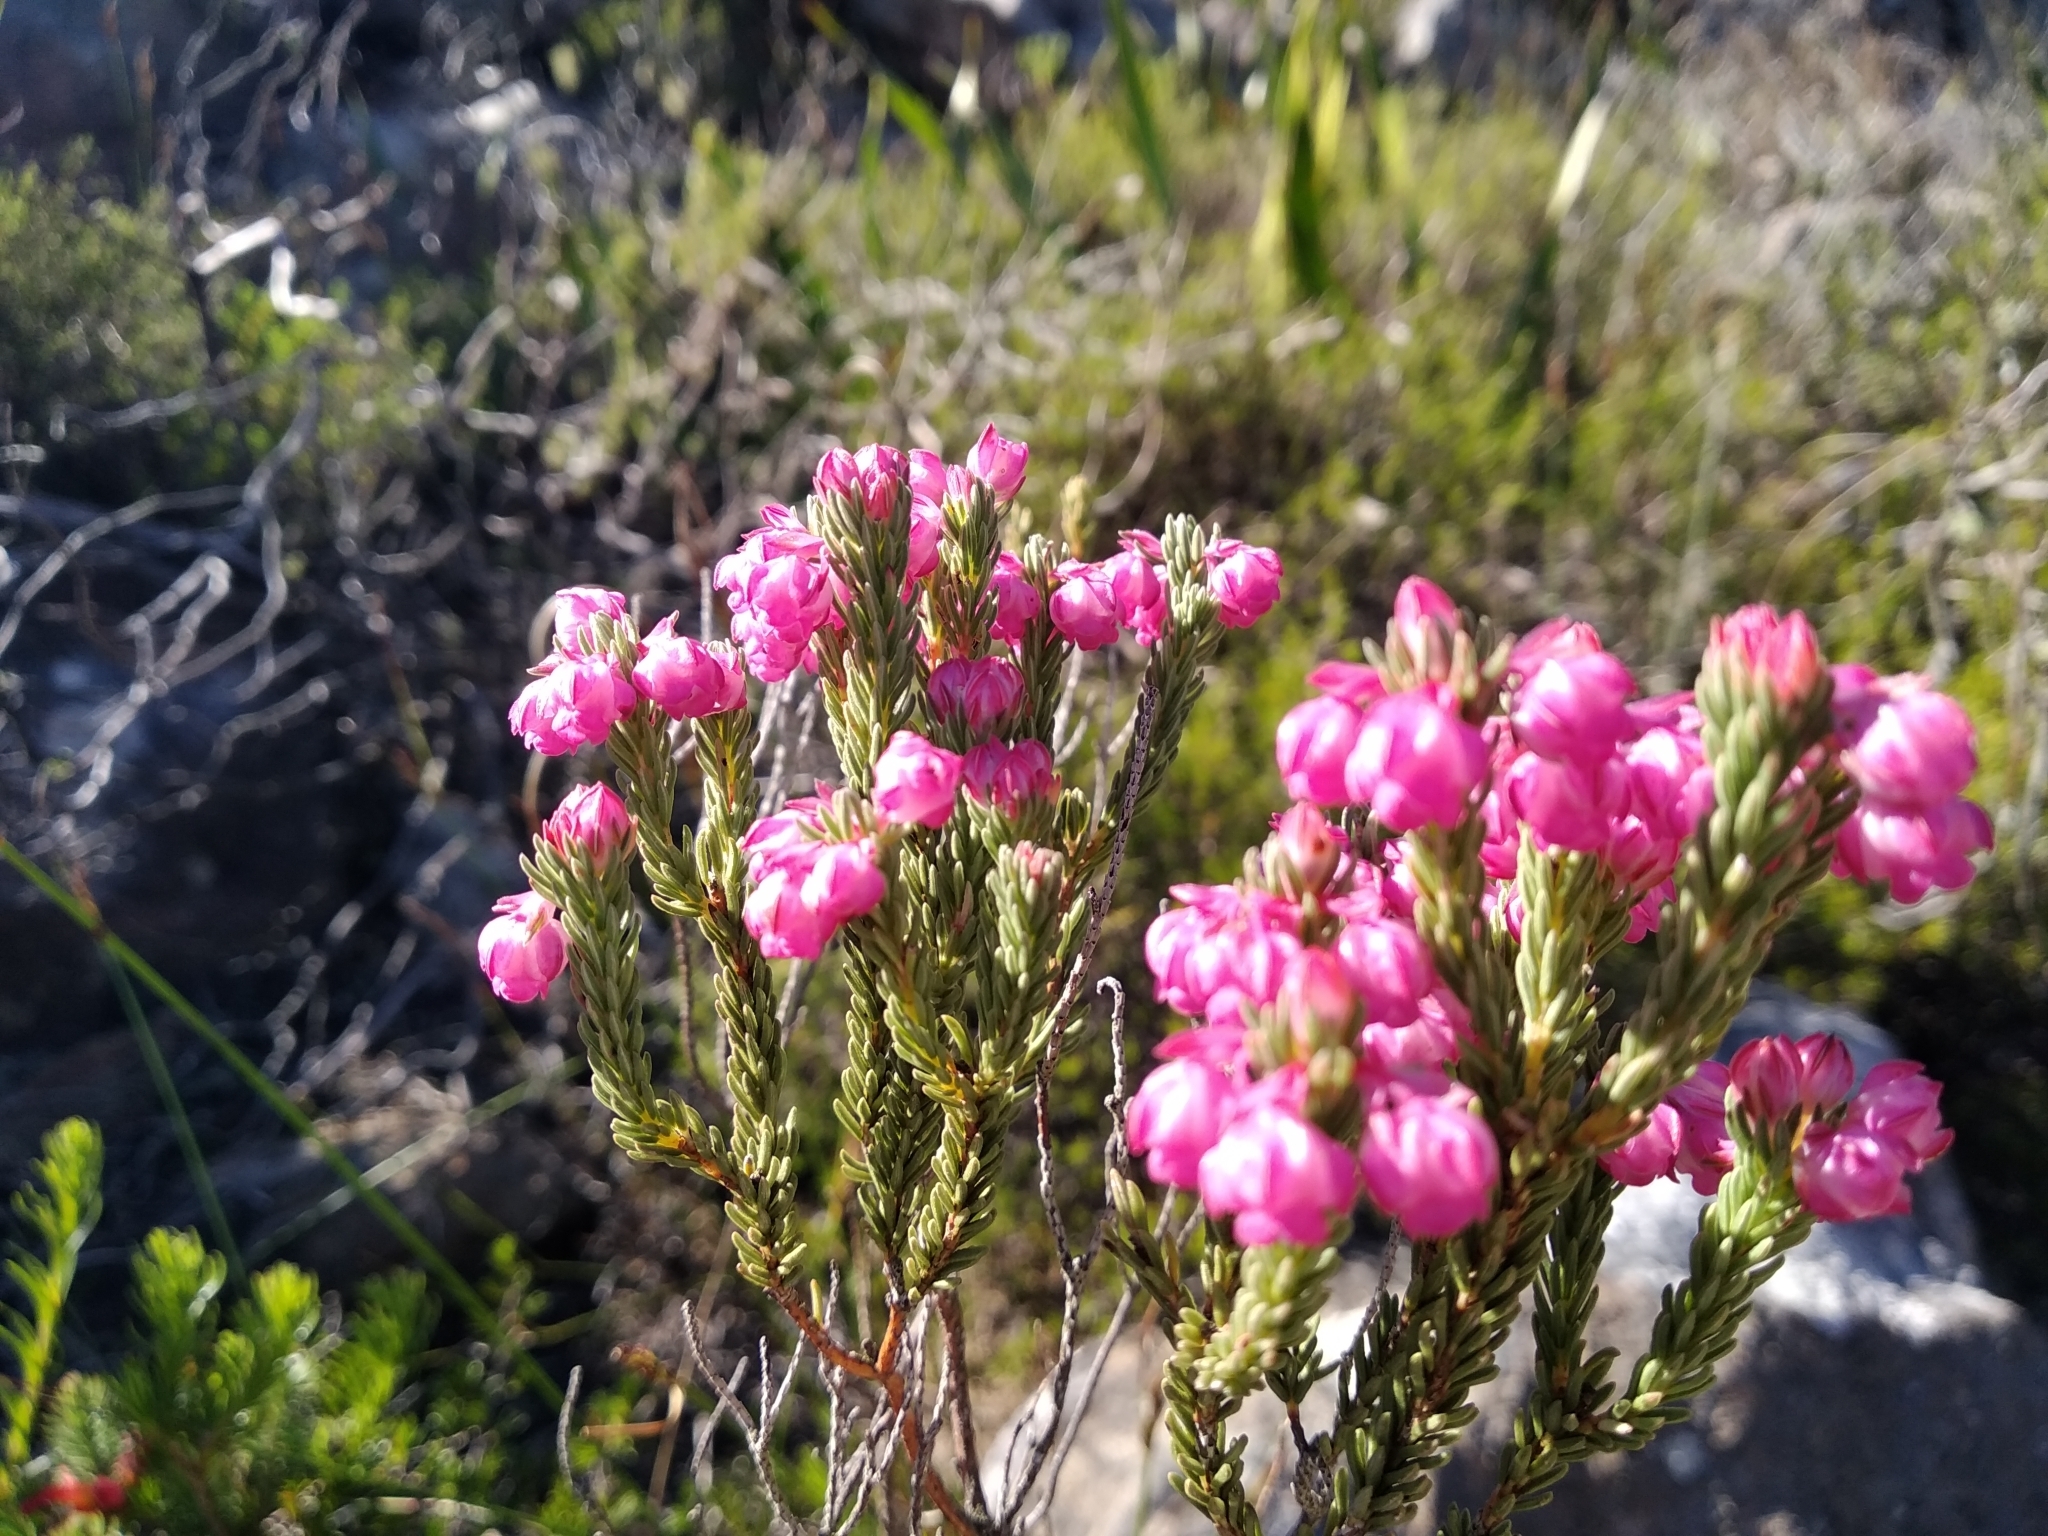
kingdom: Plantae
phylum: Tracheophyta
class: Magnoliopsida
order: Ericales
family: Ericaceae
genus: Erica
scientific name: Erica baccans
